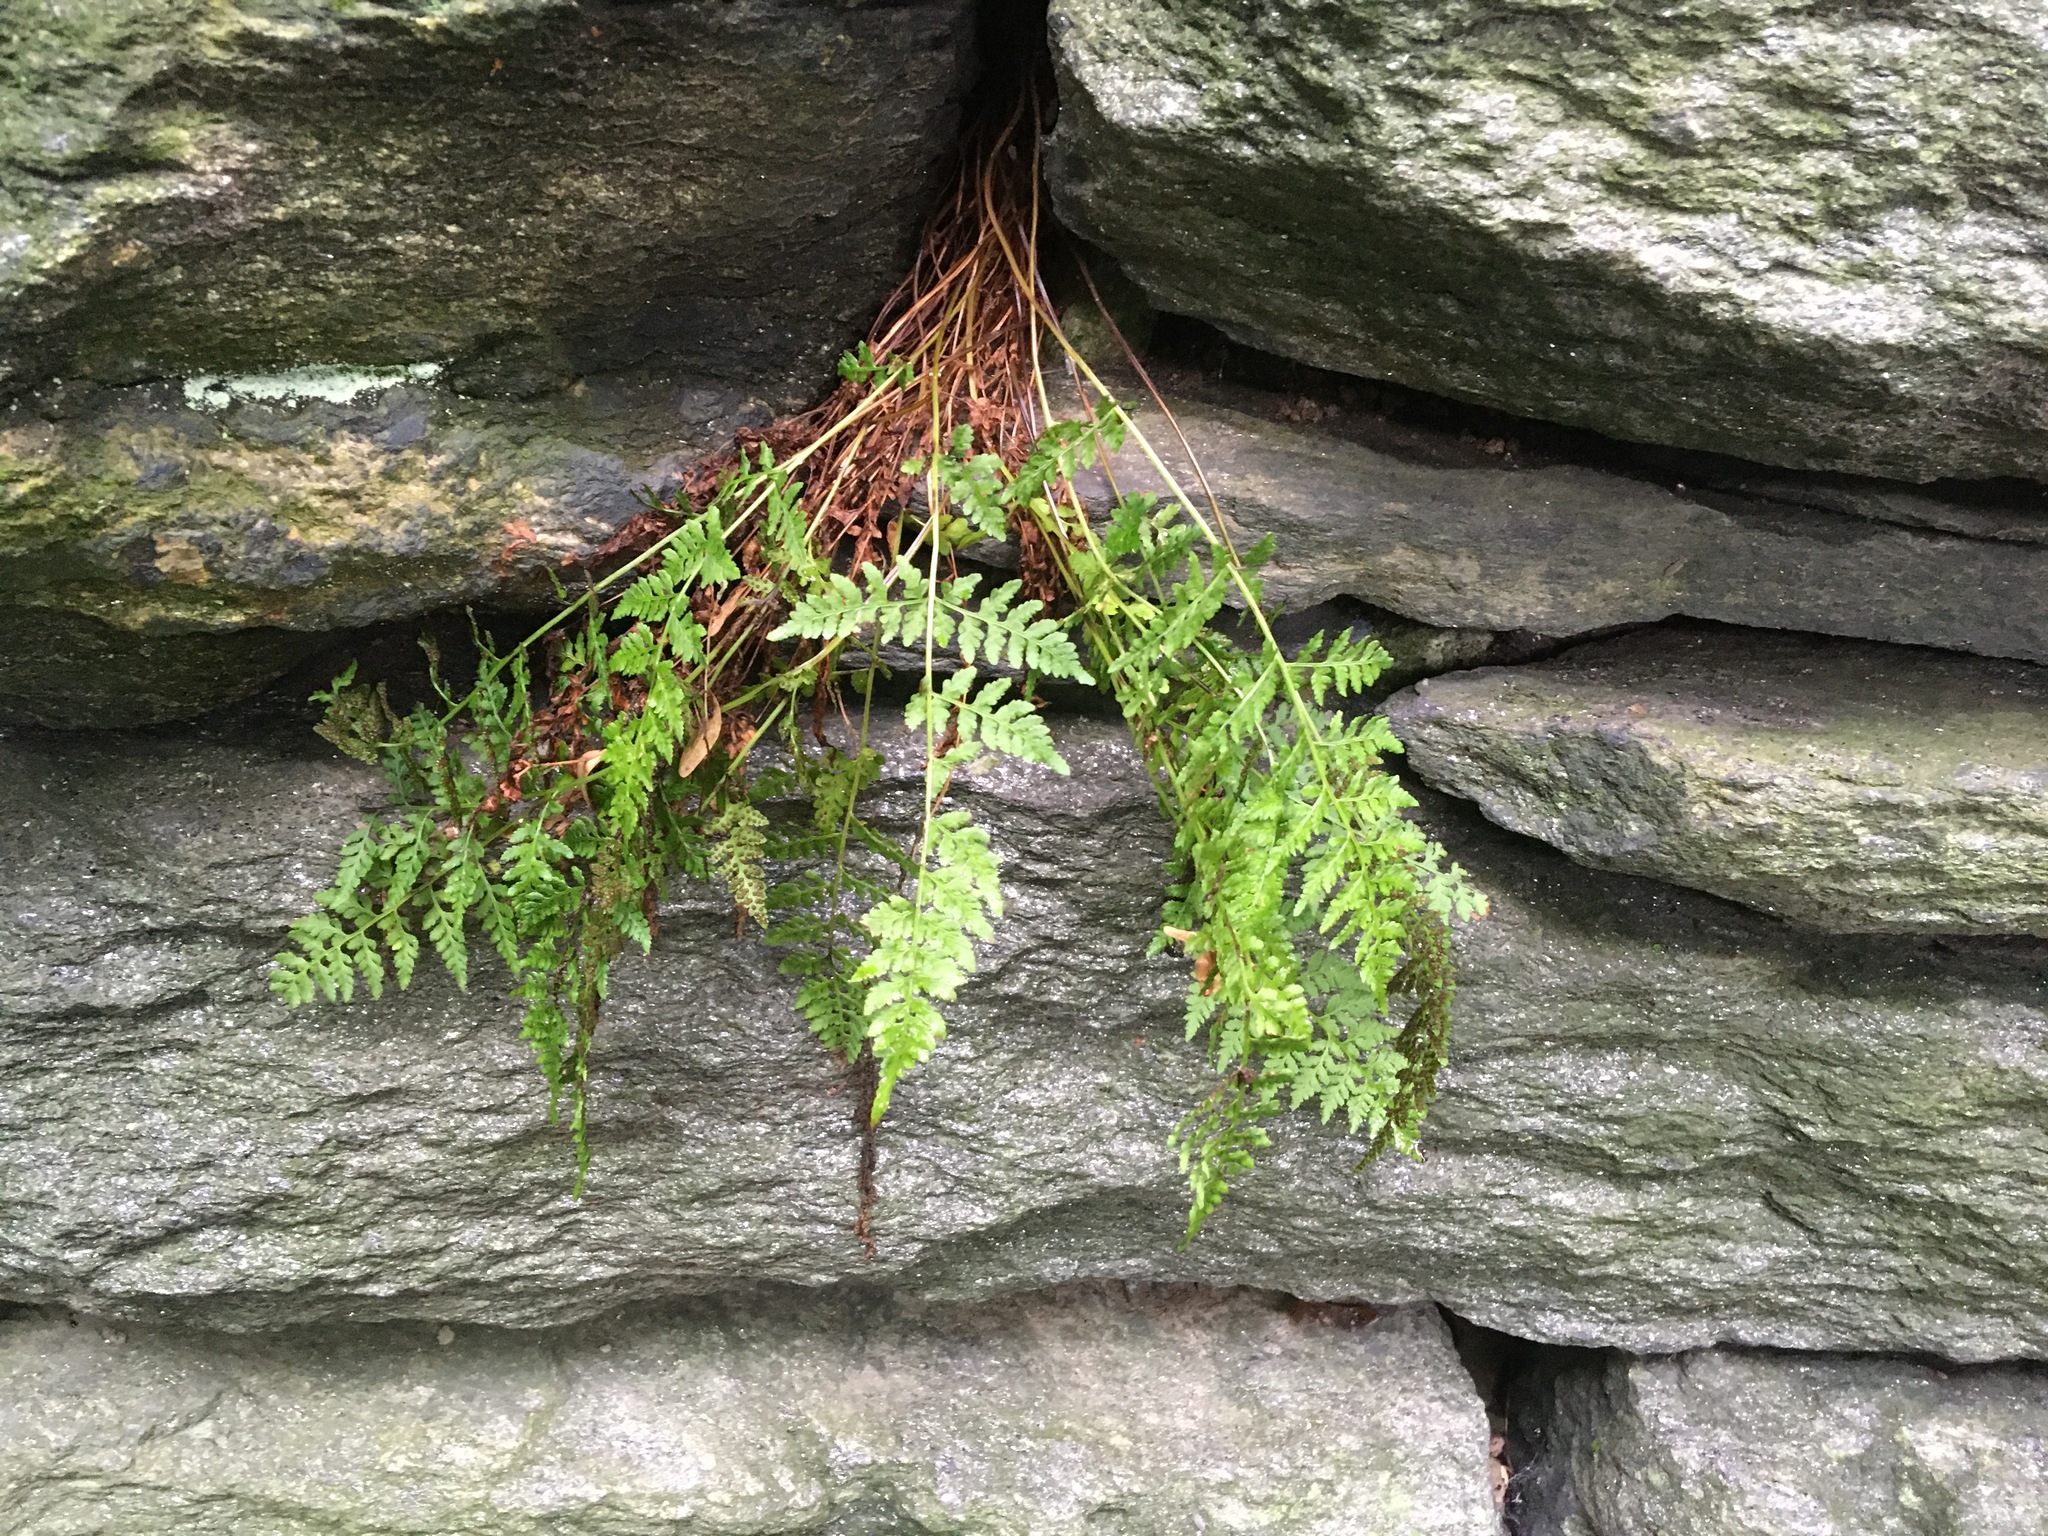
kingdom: Plantae
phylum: Tracheophyta
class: Polypodiopsida
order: Polypodiales
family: Cystopteridaceae
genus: Cystopteris
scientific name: Cystopteris fragilis
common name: Brittle bladder fern
